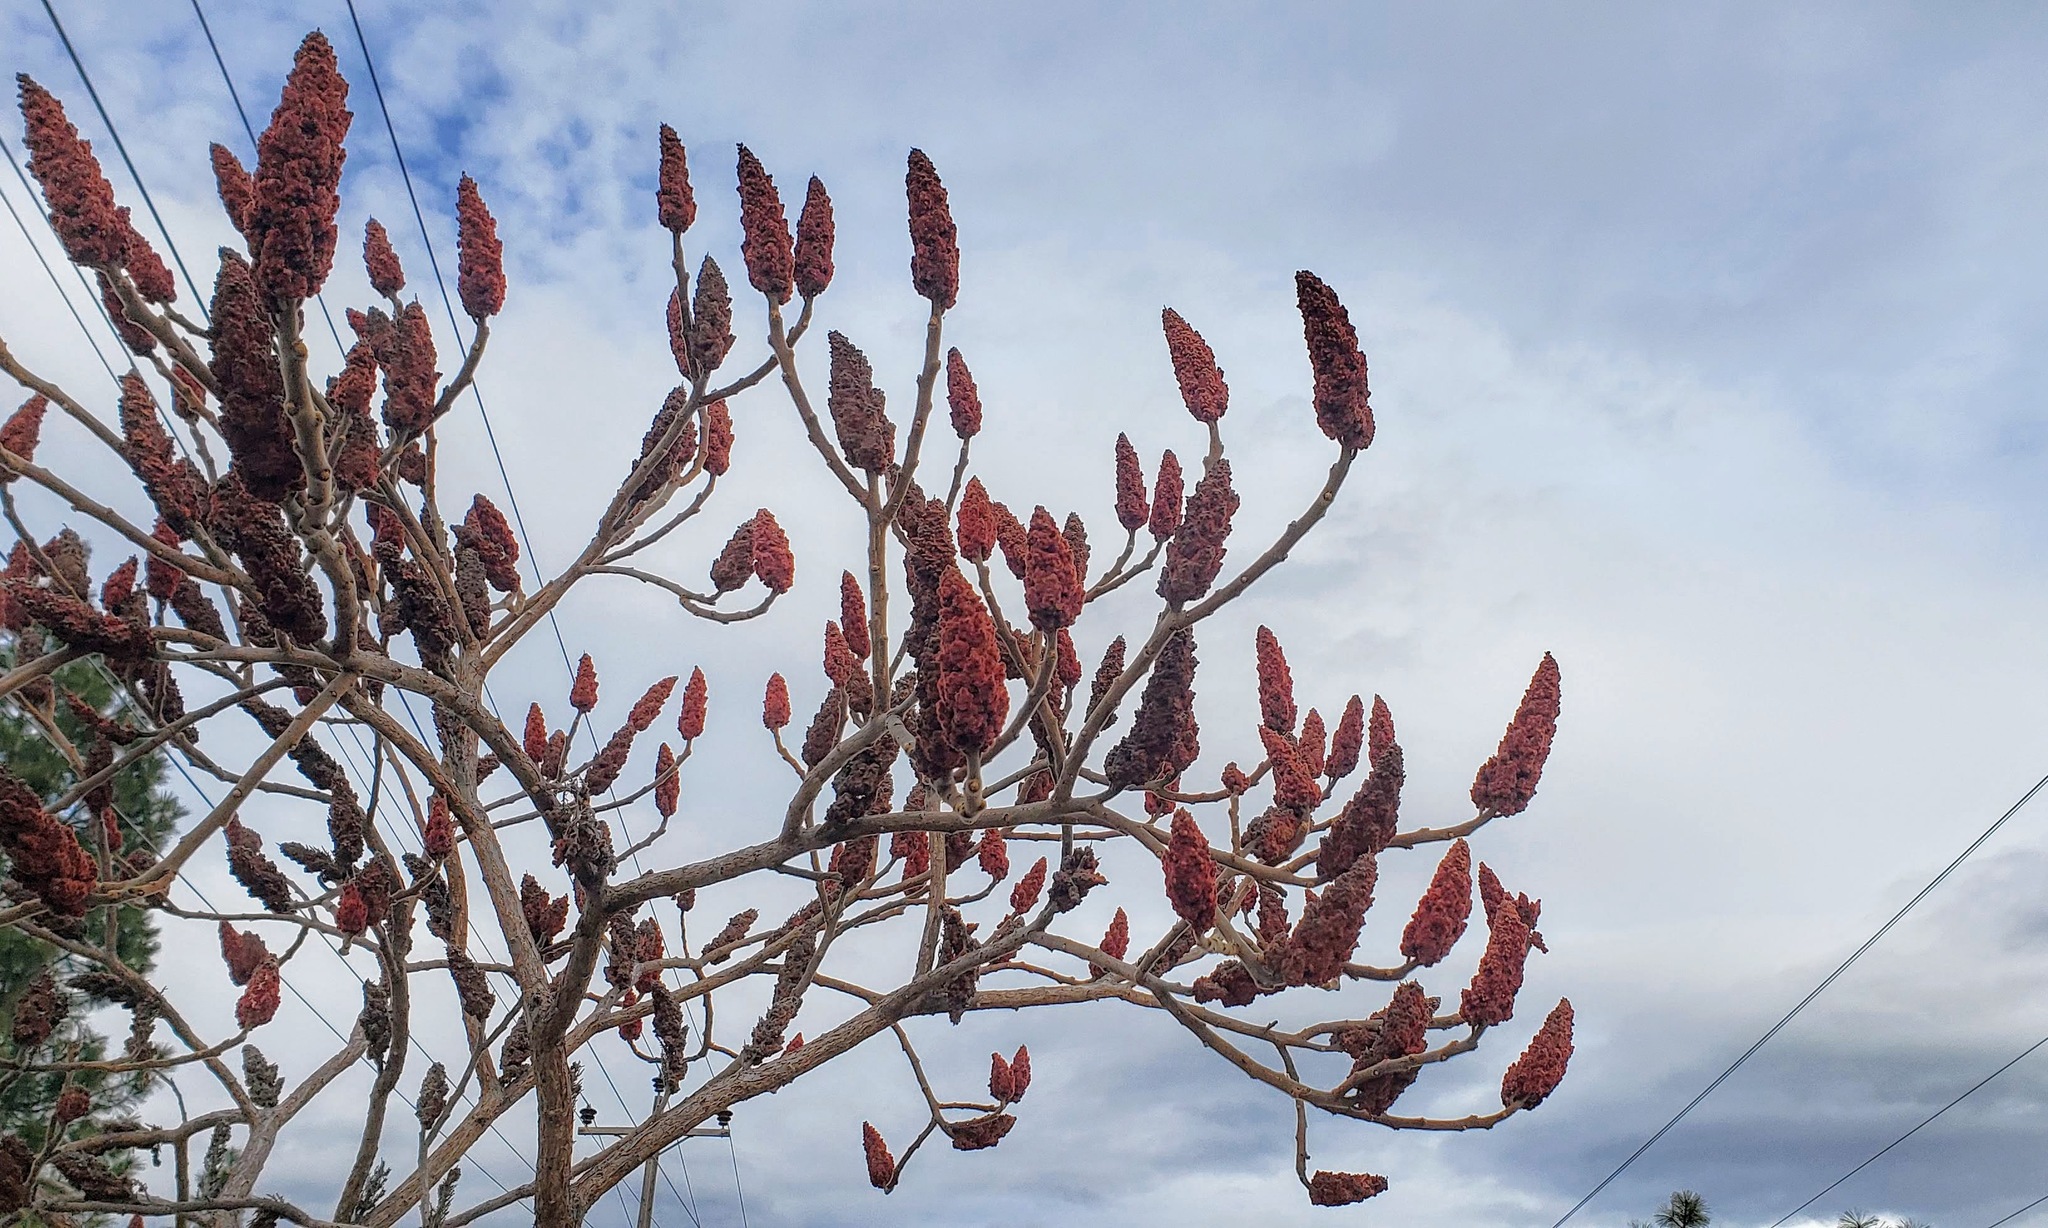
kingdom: Plantae
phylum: Tracheophyta
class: Magnoliopsida
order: Sapindales
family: Anacardiaceae
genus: Rhus
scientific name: Rhus typhina
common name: Staghorn sumac
